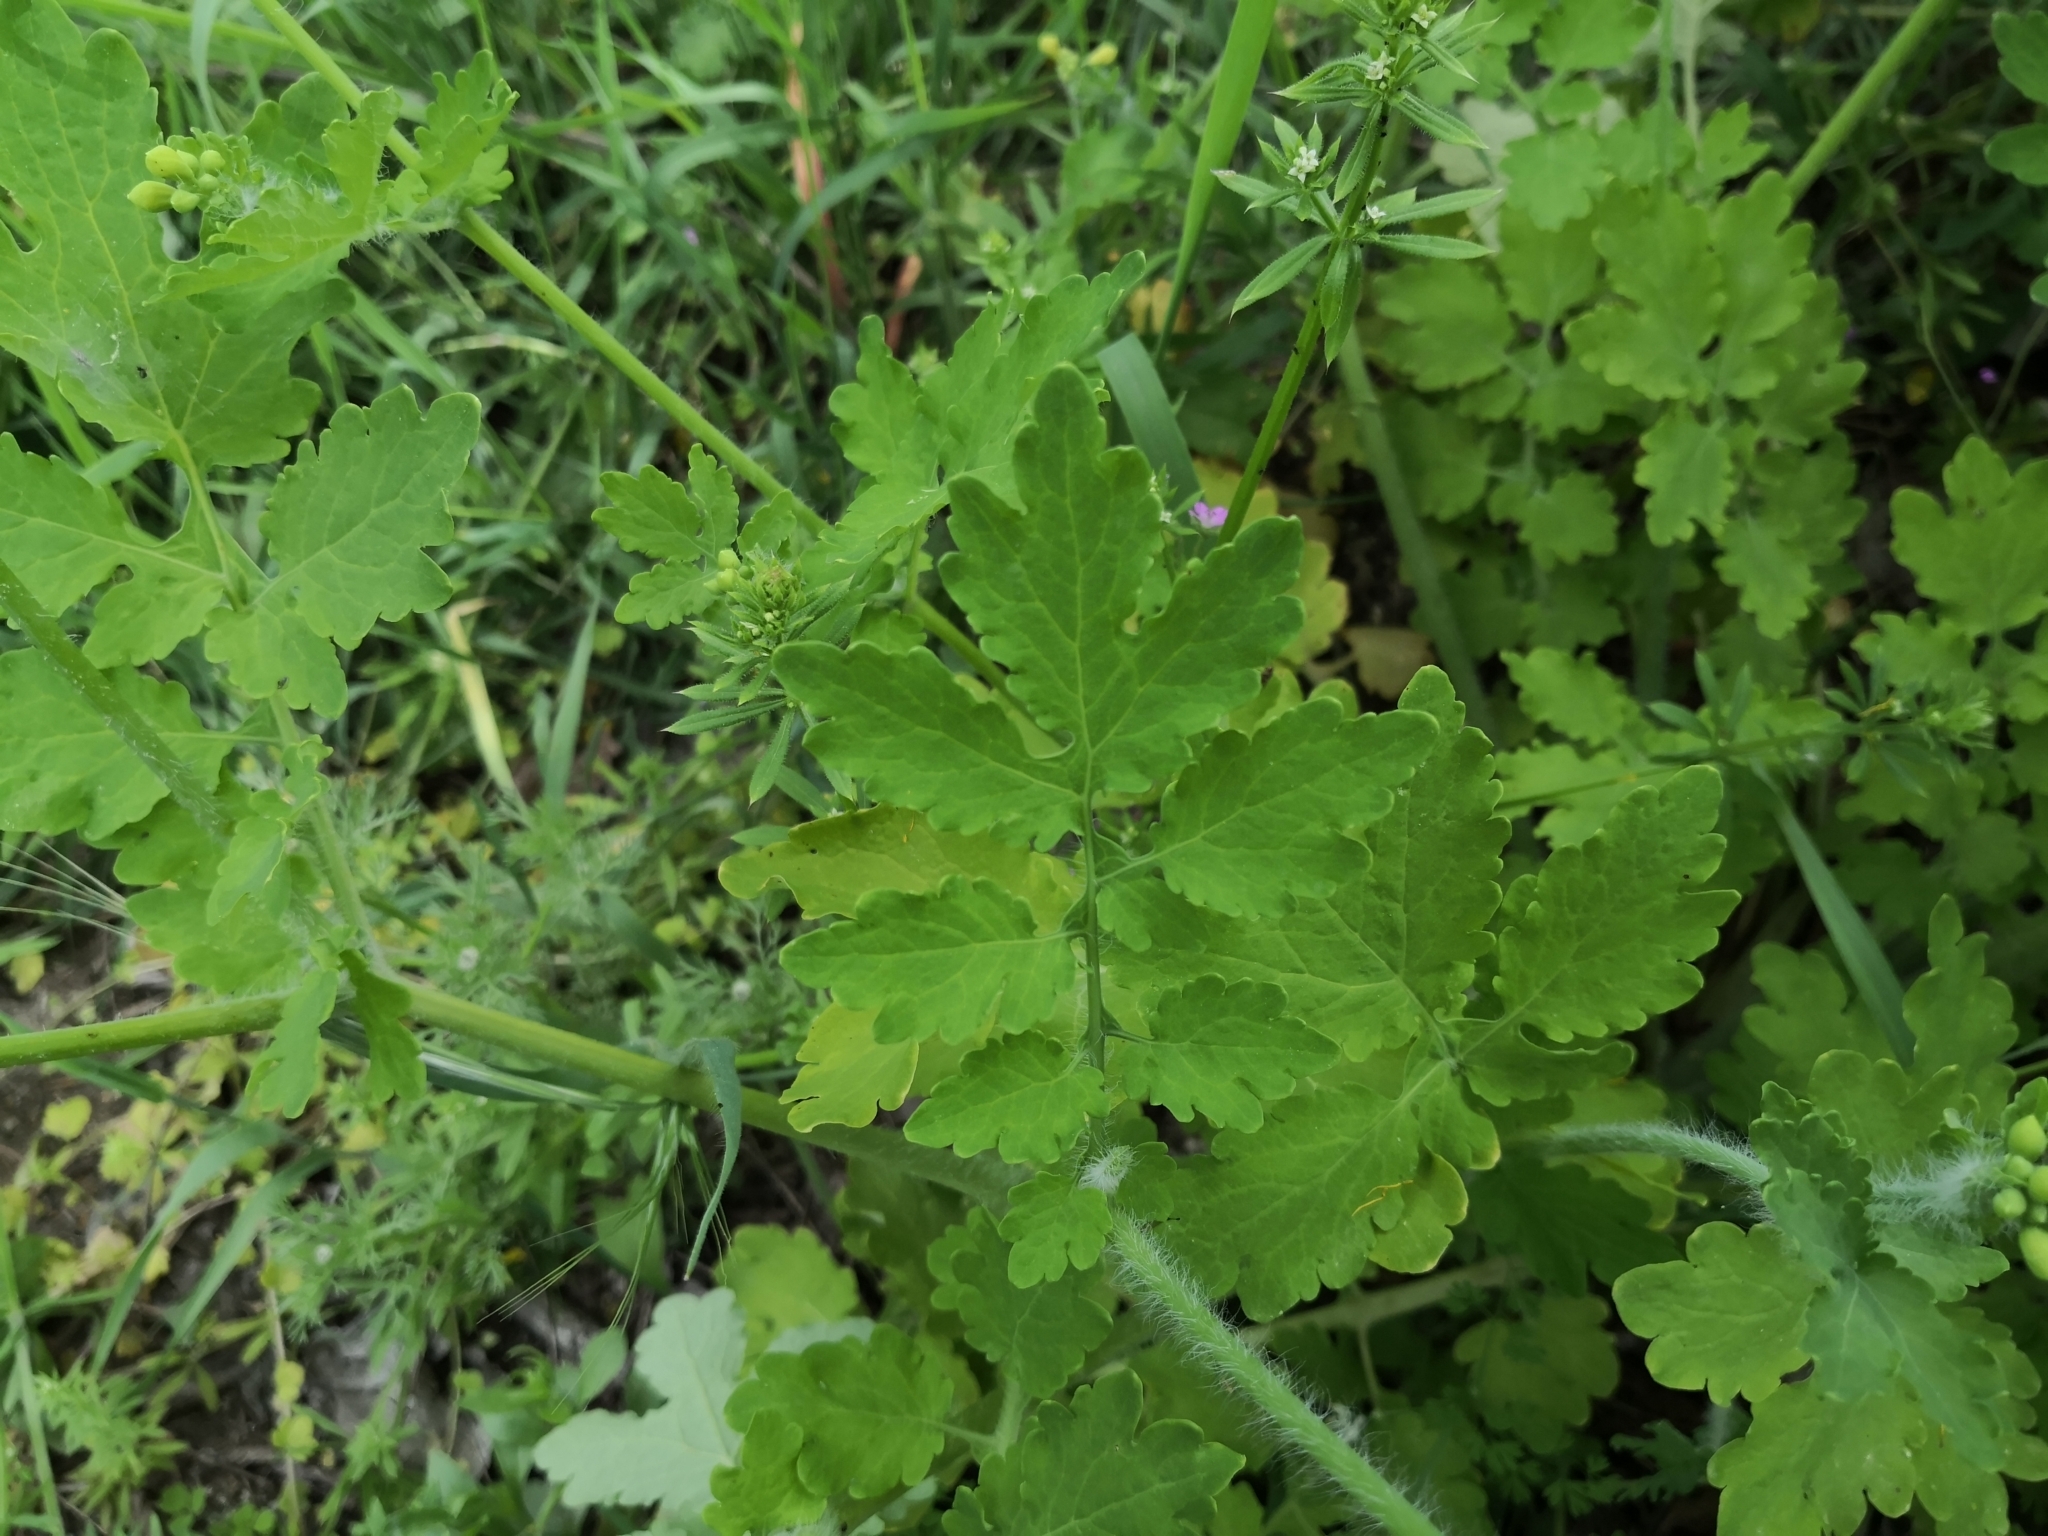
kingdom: Plantae
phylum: Tracheophyta
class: Magnoliopsida
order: Ranunculales
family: Papaveraceae
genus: Chelidonium
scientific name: Chelidonium majus
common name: Greater celandine
